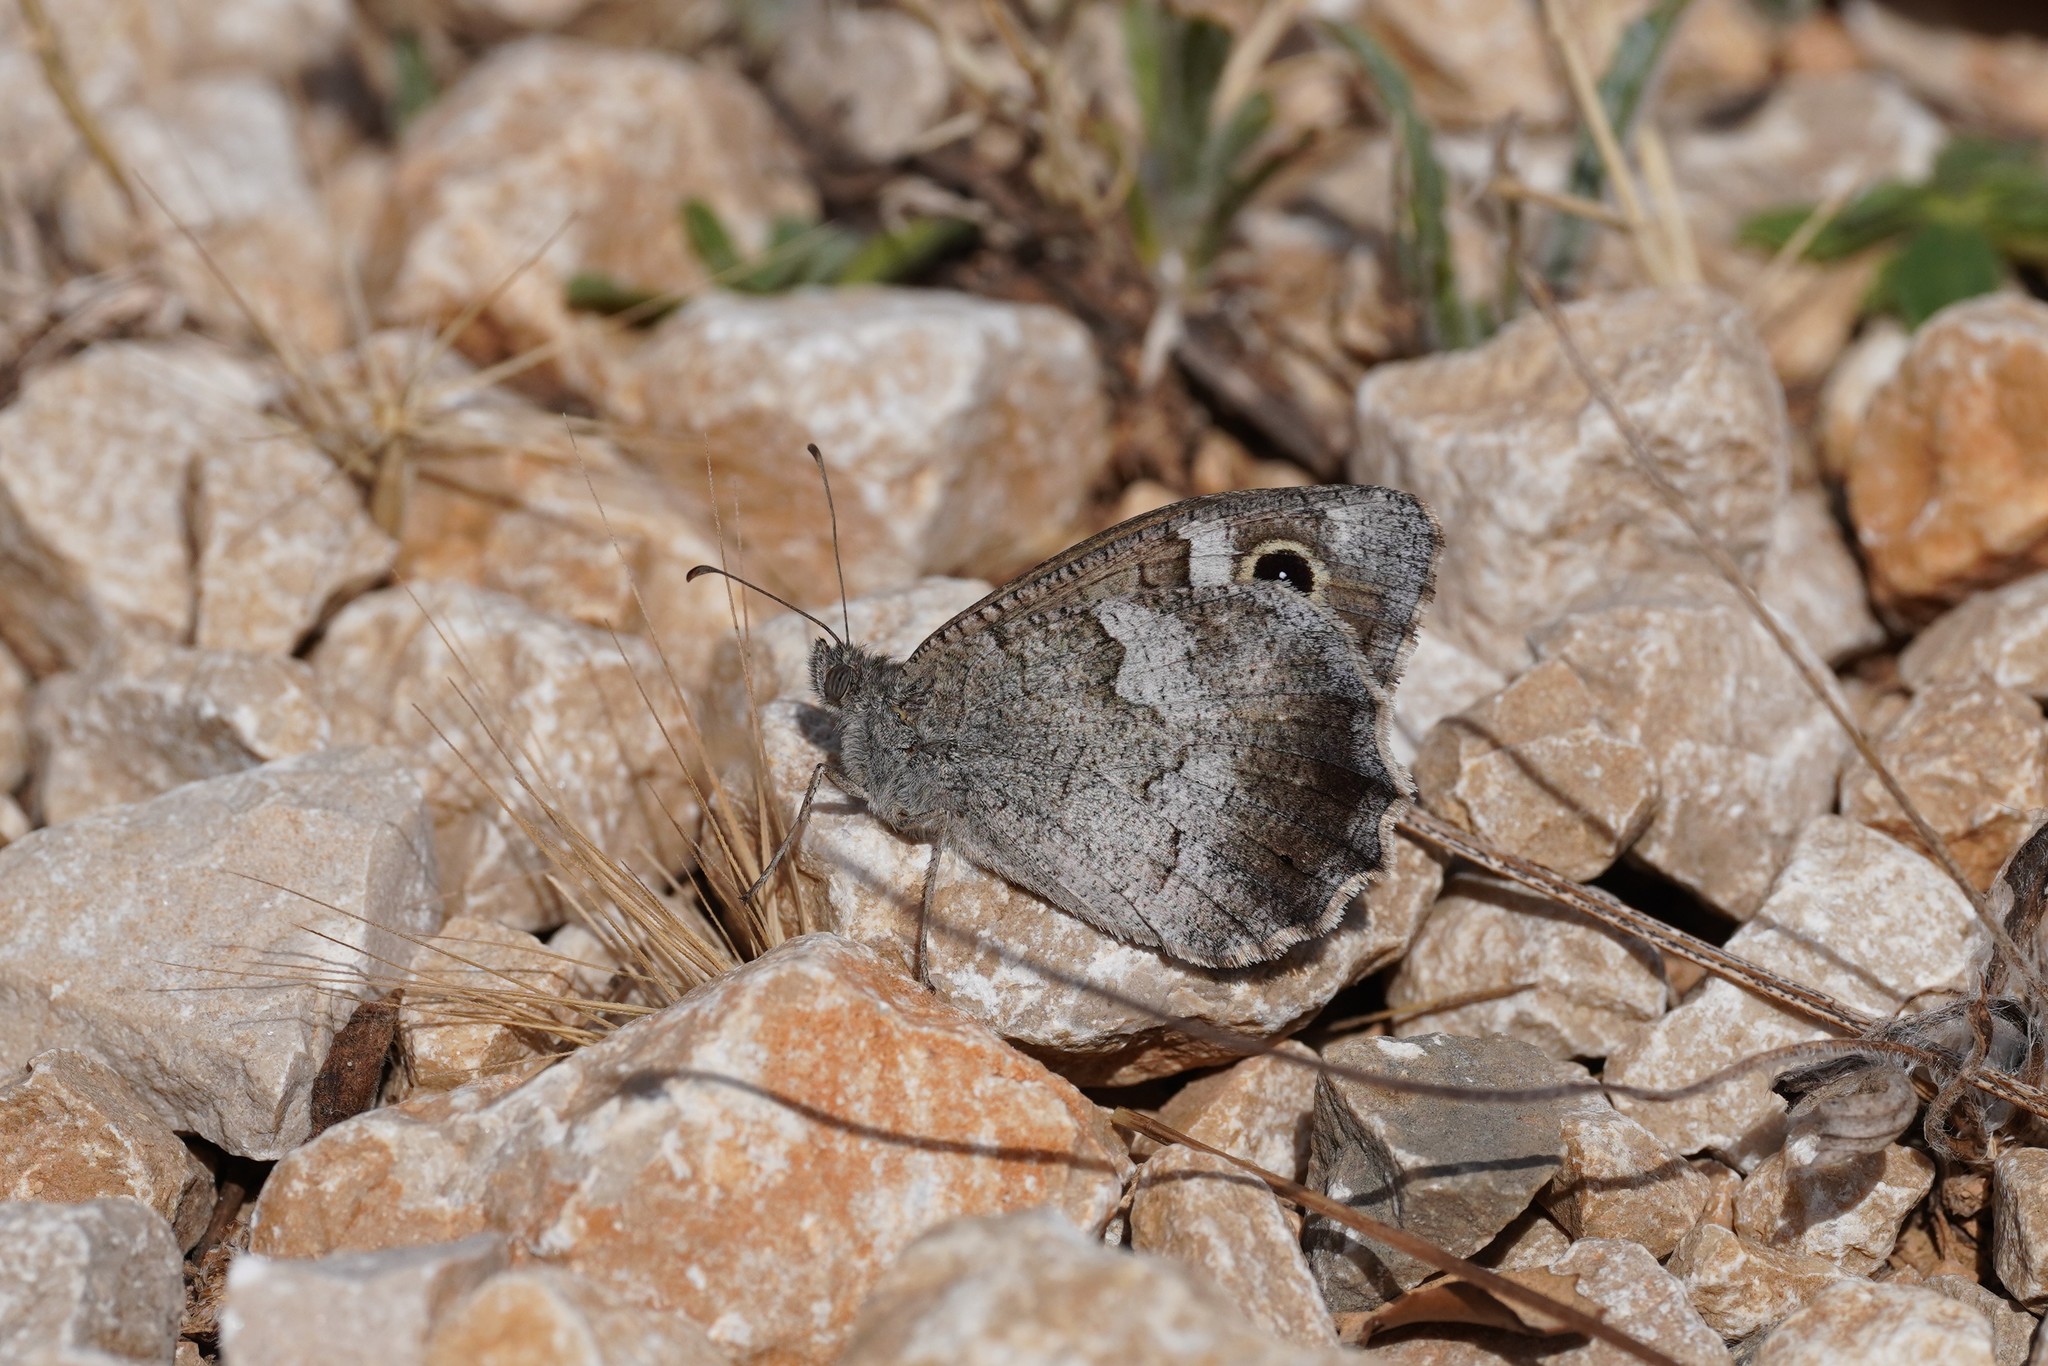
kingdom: Animalia
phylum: Arthropoda
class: Insecta
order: Lepidoptera
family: Nymphalidae
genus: Hipparchia
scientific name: Hipparchia statilinus
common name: Tree grayling
